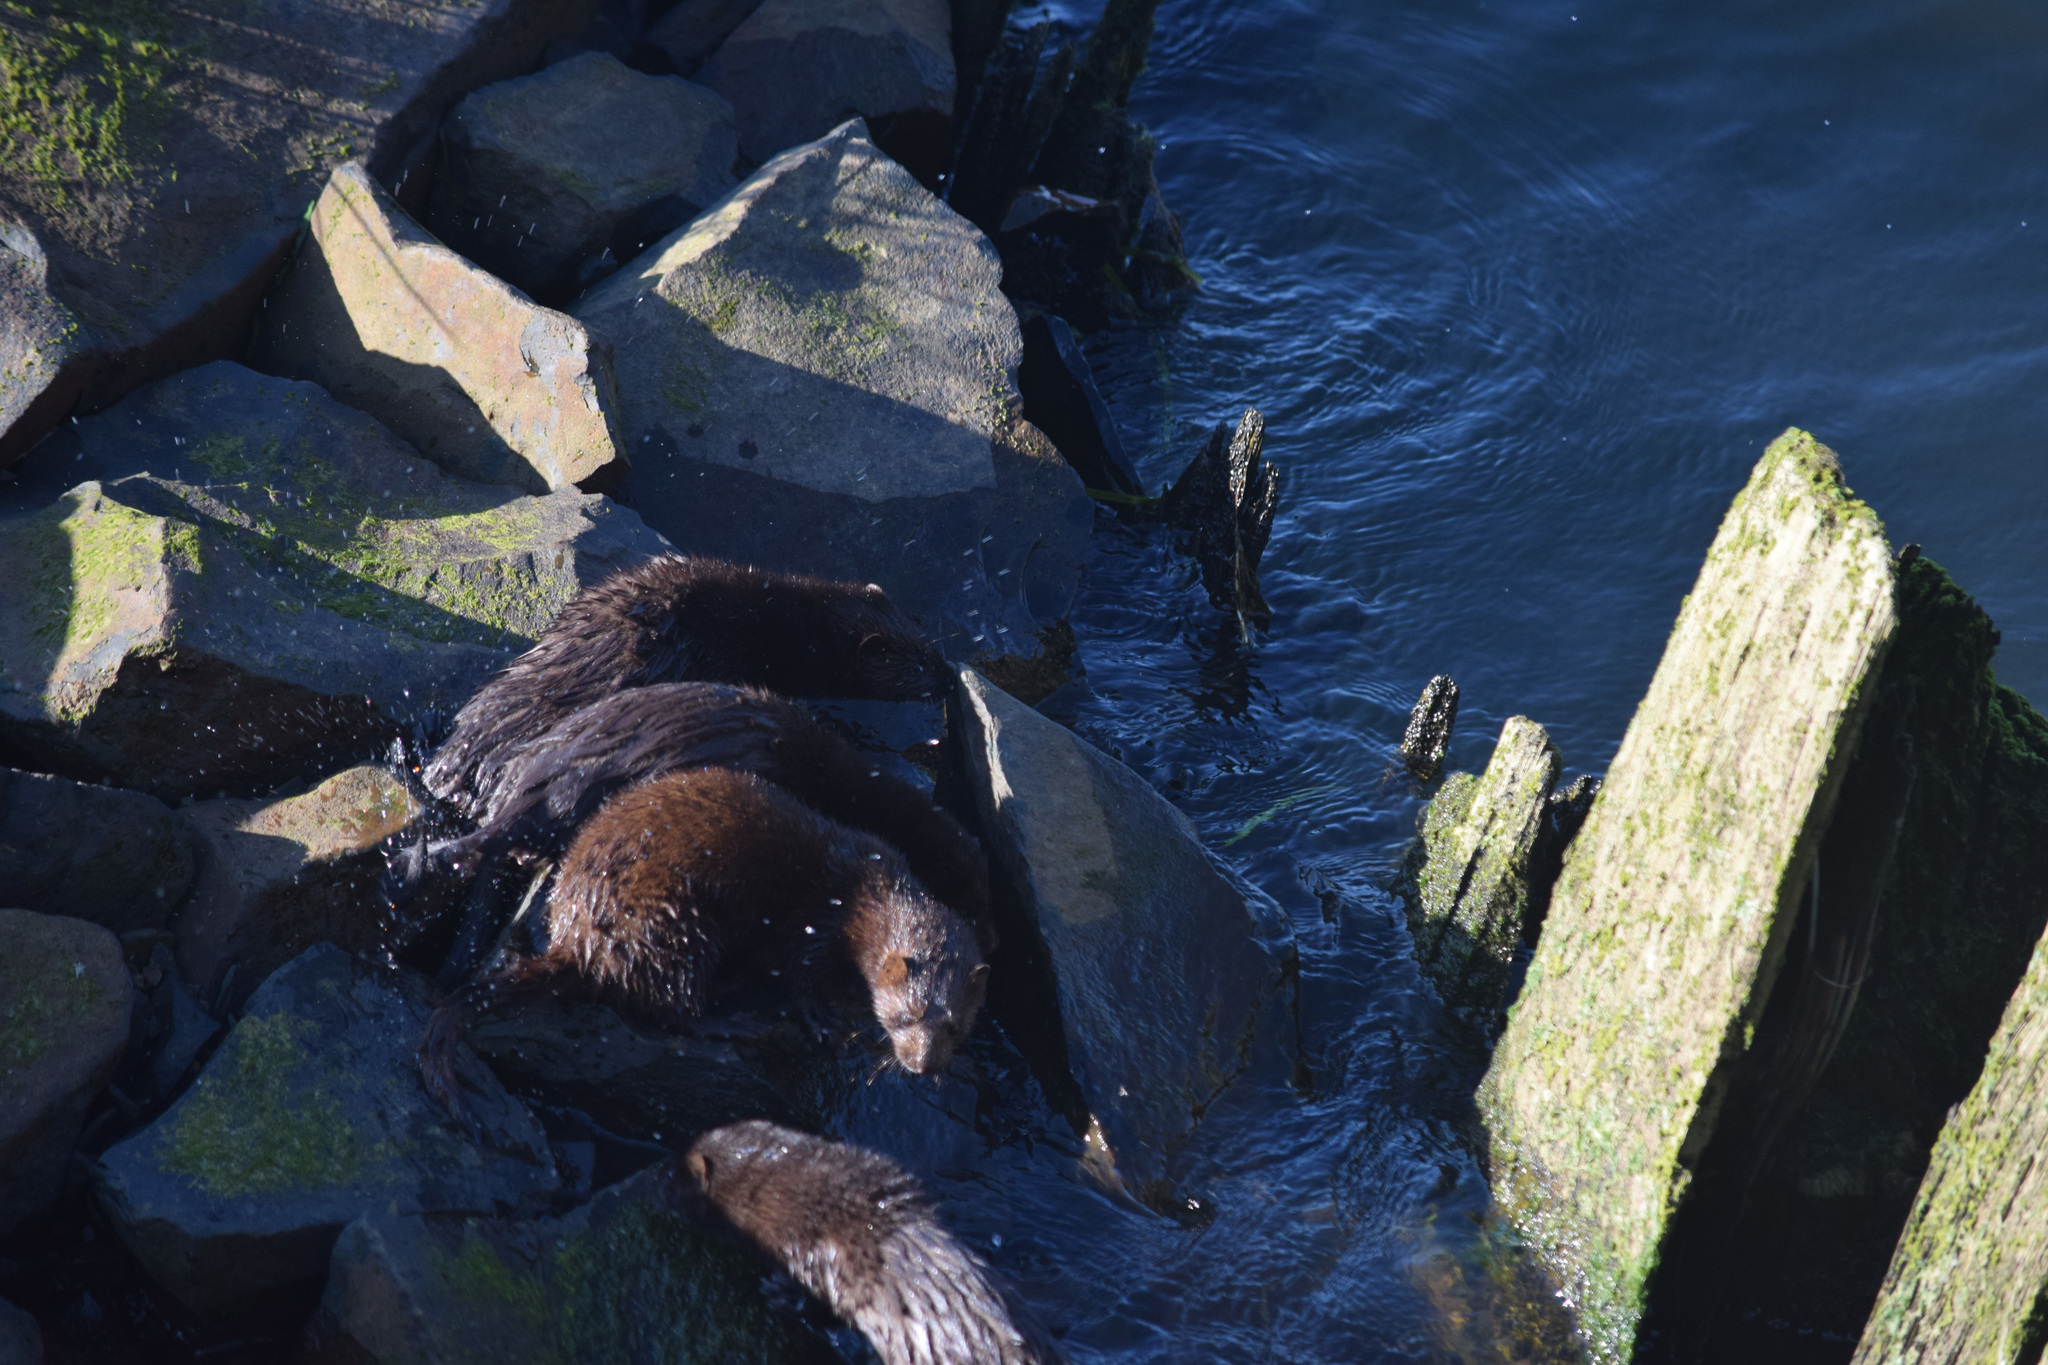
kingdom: Animalia
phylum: Chordata
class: Mammalia
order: Carnivora
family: Mustelidae
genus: Mustela
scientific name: Mustela
